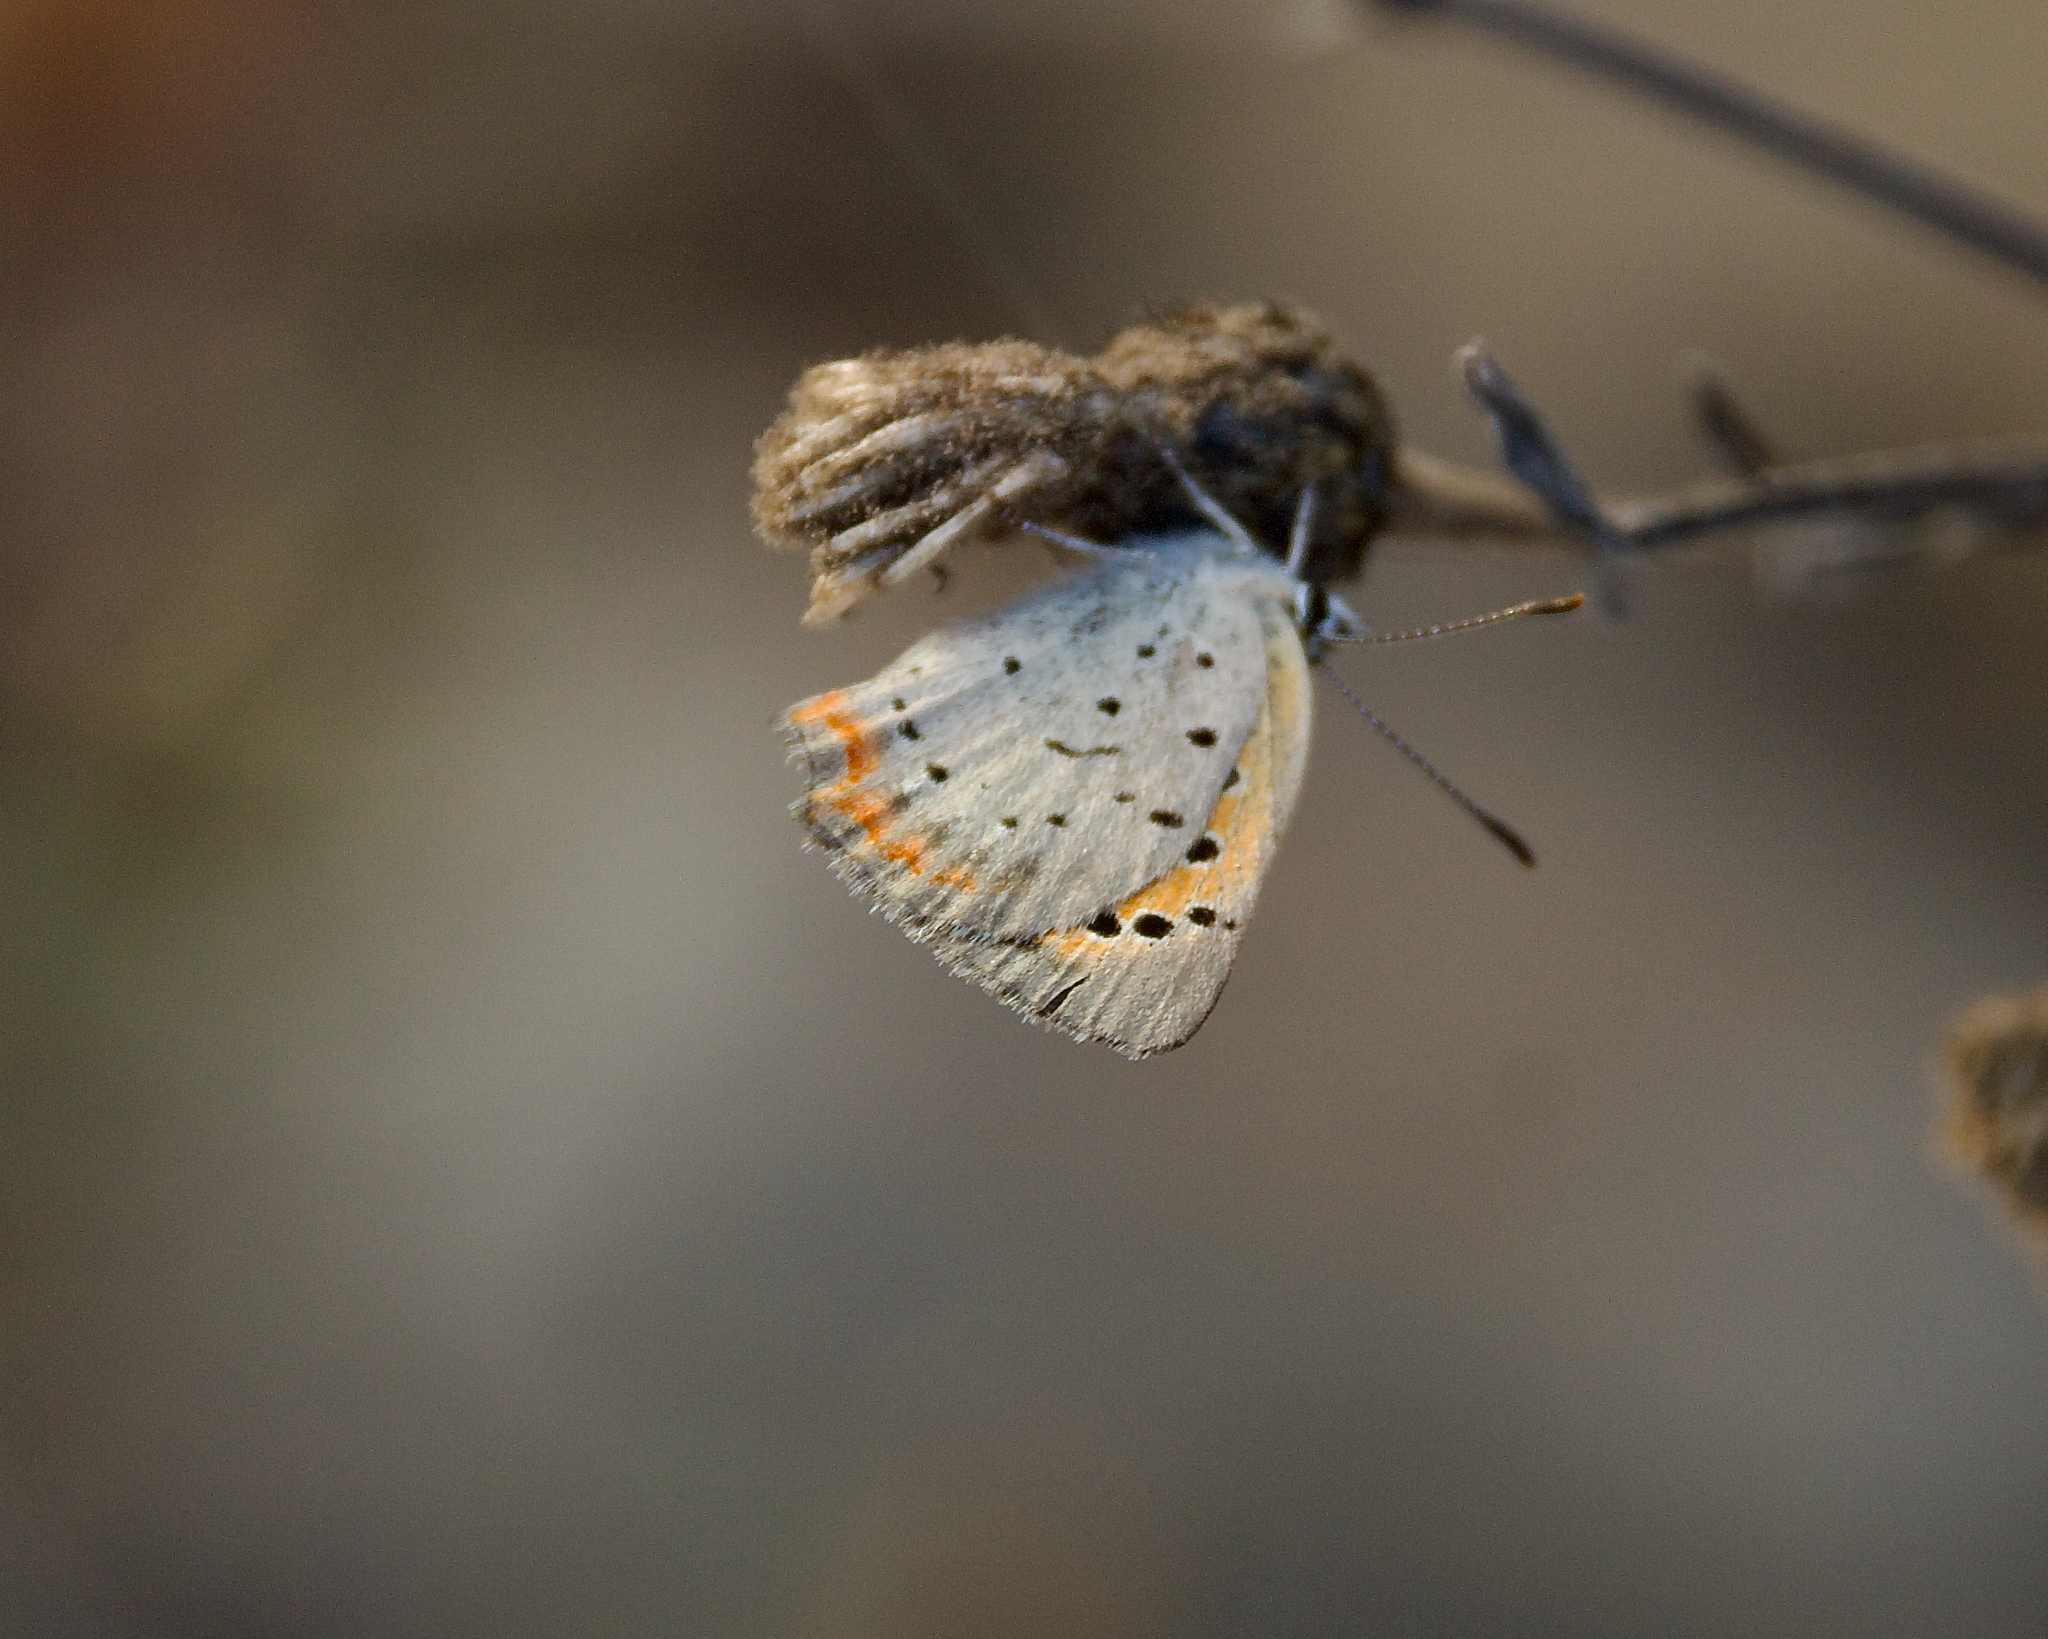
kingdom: Animalia
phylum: Arthropoda
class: Insecta
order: Lepidoptera
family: Lycaenidae
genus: Lycaena
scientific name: Lycaena hypophlaeas
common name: American copper
